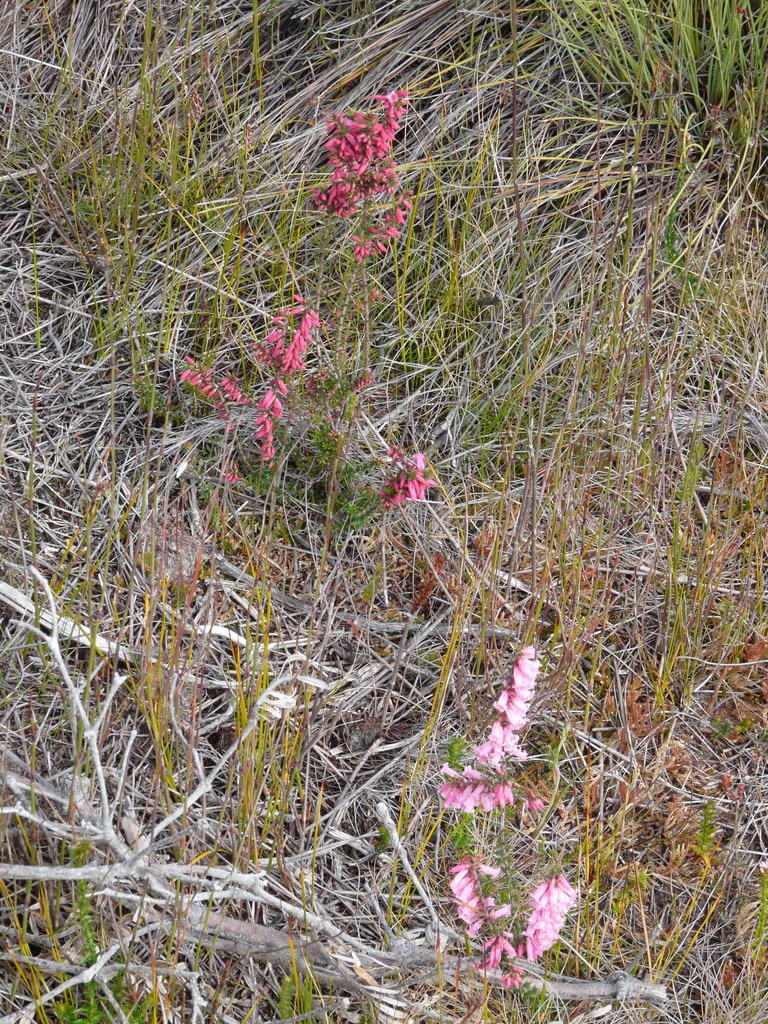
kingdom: Plantae
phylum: Tracheophyta
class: Magnoliopsida
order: Ericales
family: Ericaceae
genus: Epacris
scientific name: Epacris impressa
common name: Common-heath
